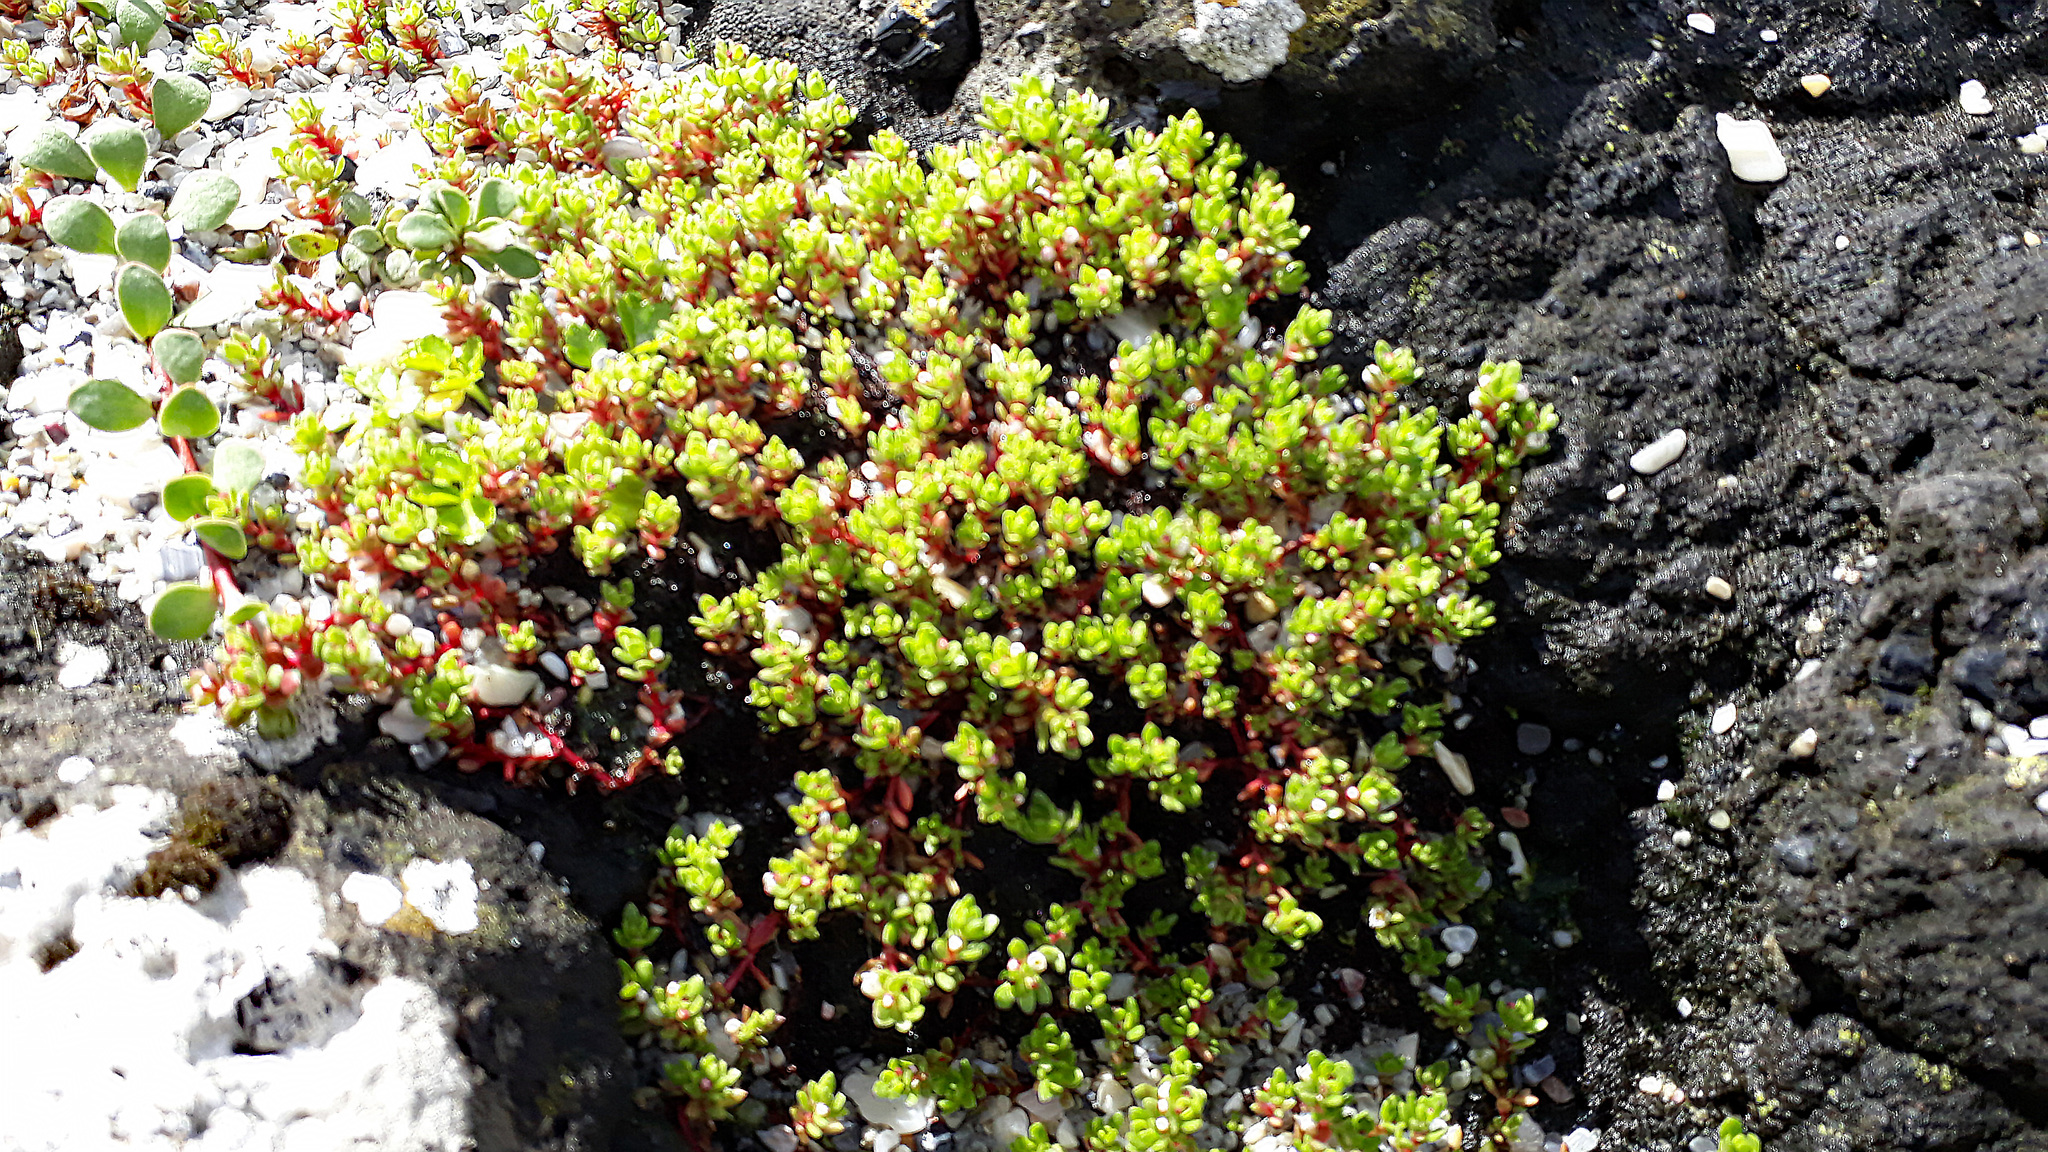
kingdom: Plantae
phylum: Tracheophyta
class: Magnoliopsida
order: Saxifragales
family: Crassulaceae
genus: Crassula
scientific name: Crassula moschata
